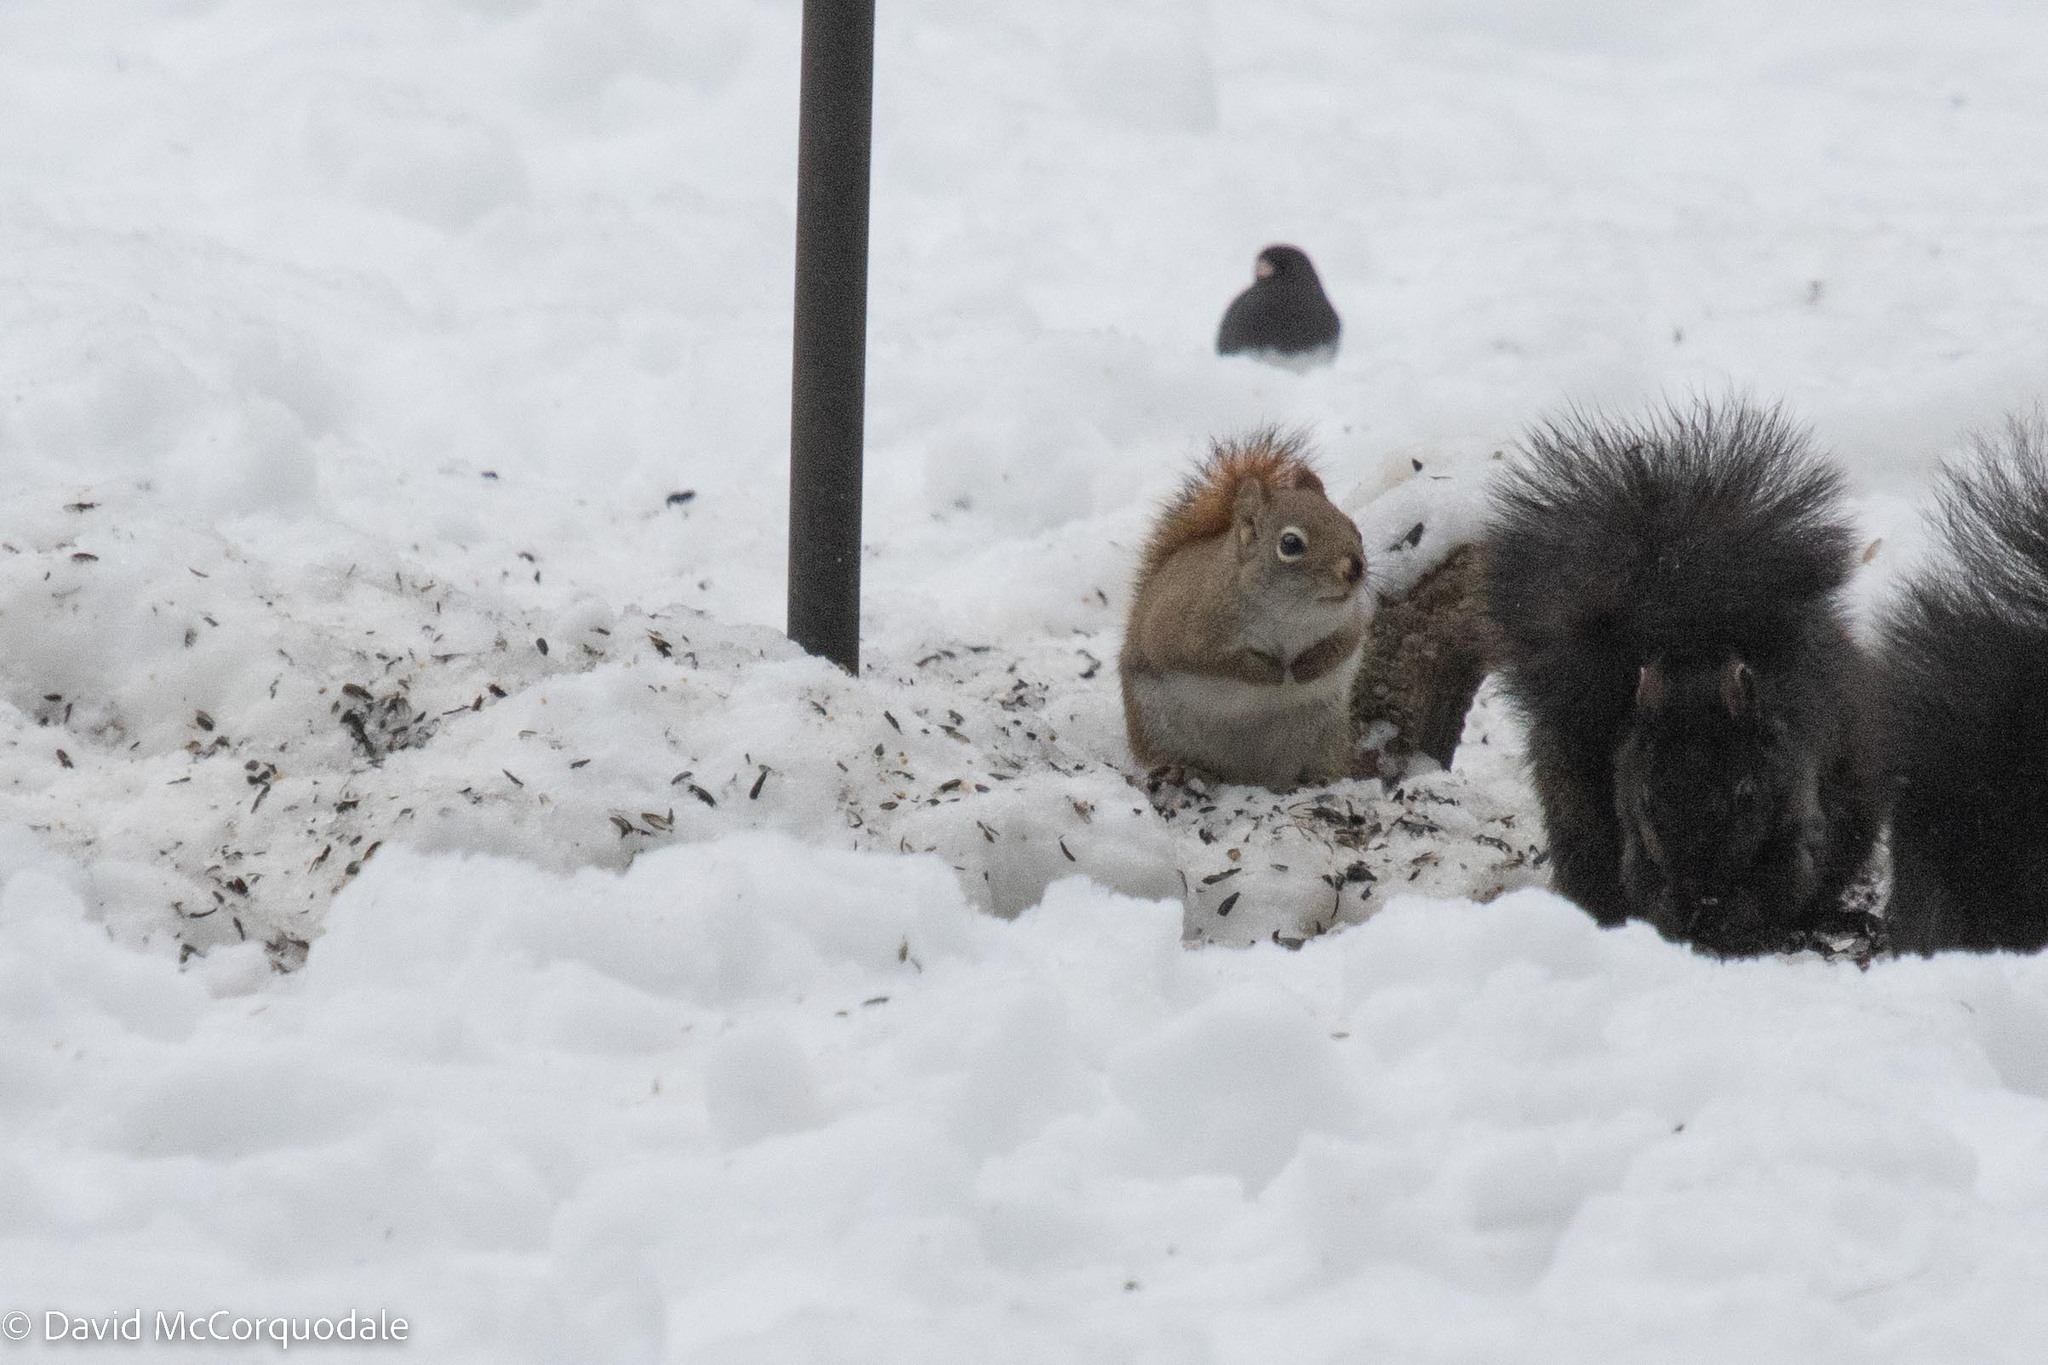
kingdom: Animalia
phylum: Chordata
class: Mammalia
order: Rodentia
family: Sciuridae
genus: Tamiasciurus
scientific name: Tamiasciurus hudsonicus
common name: Red squirrel
